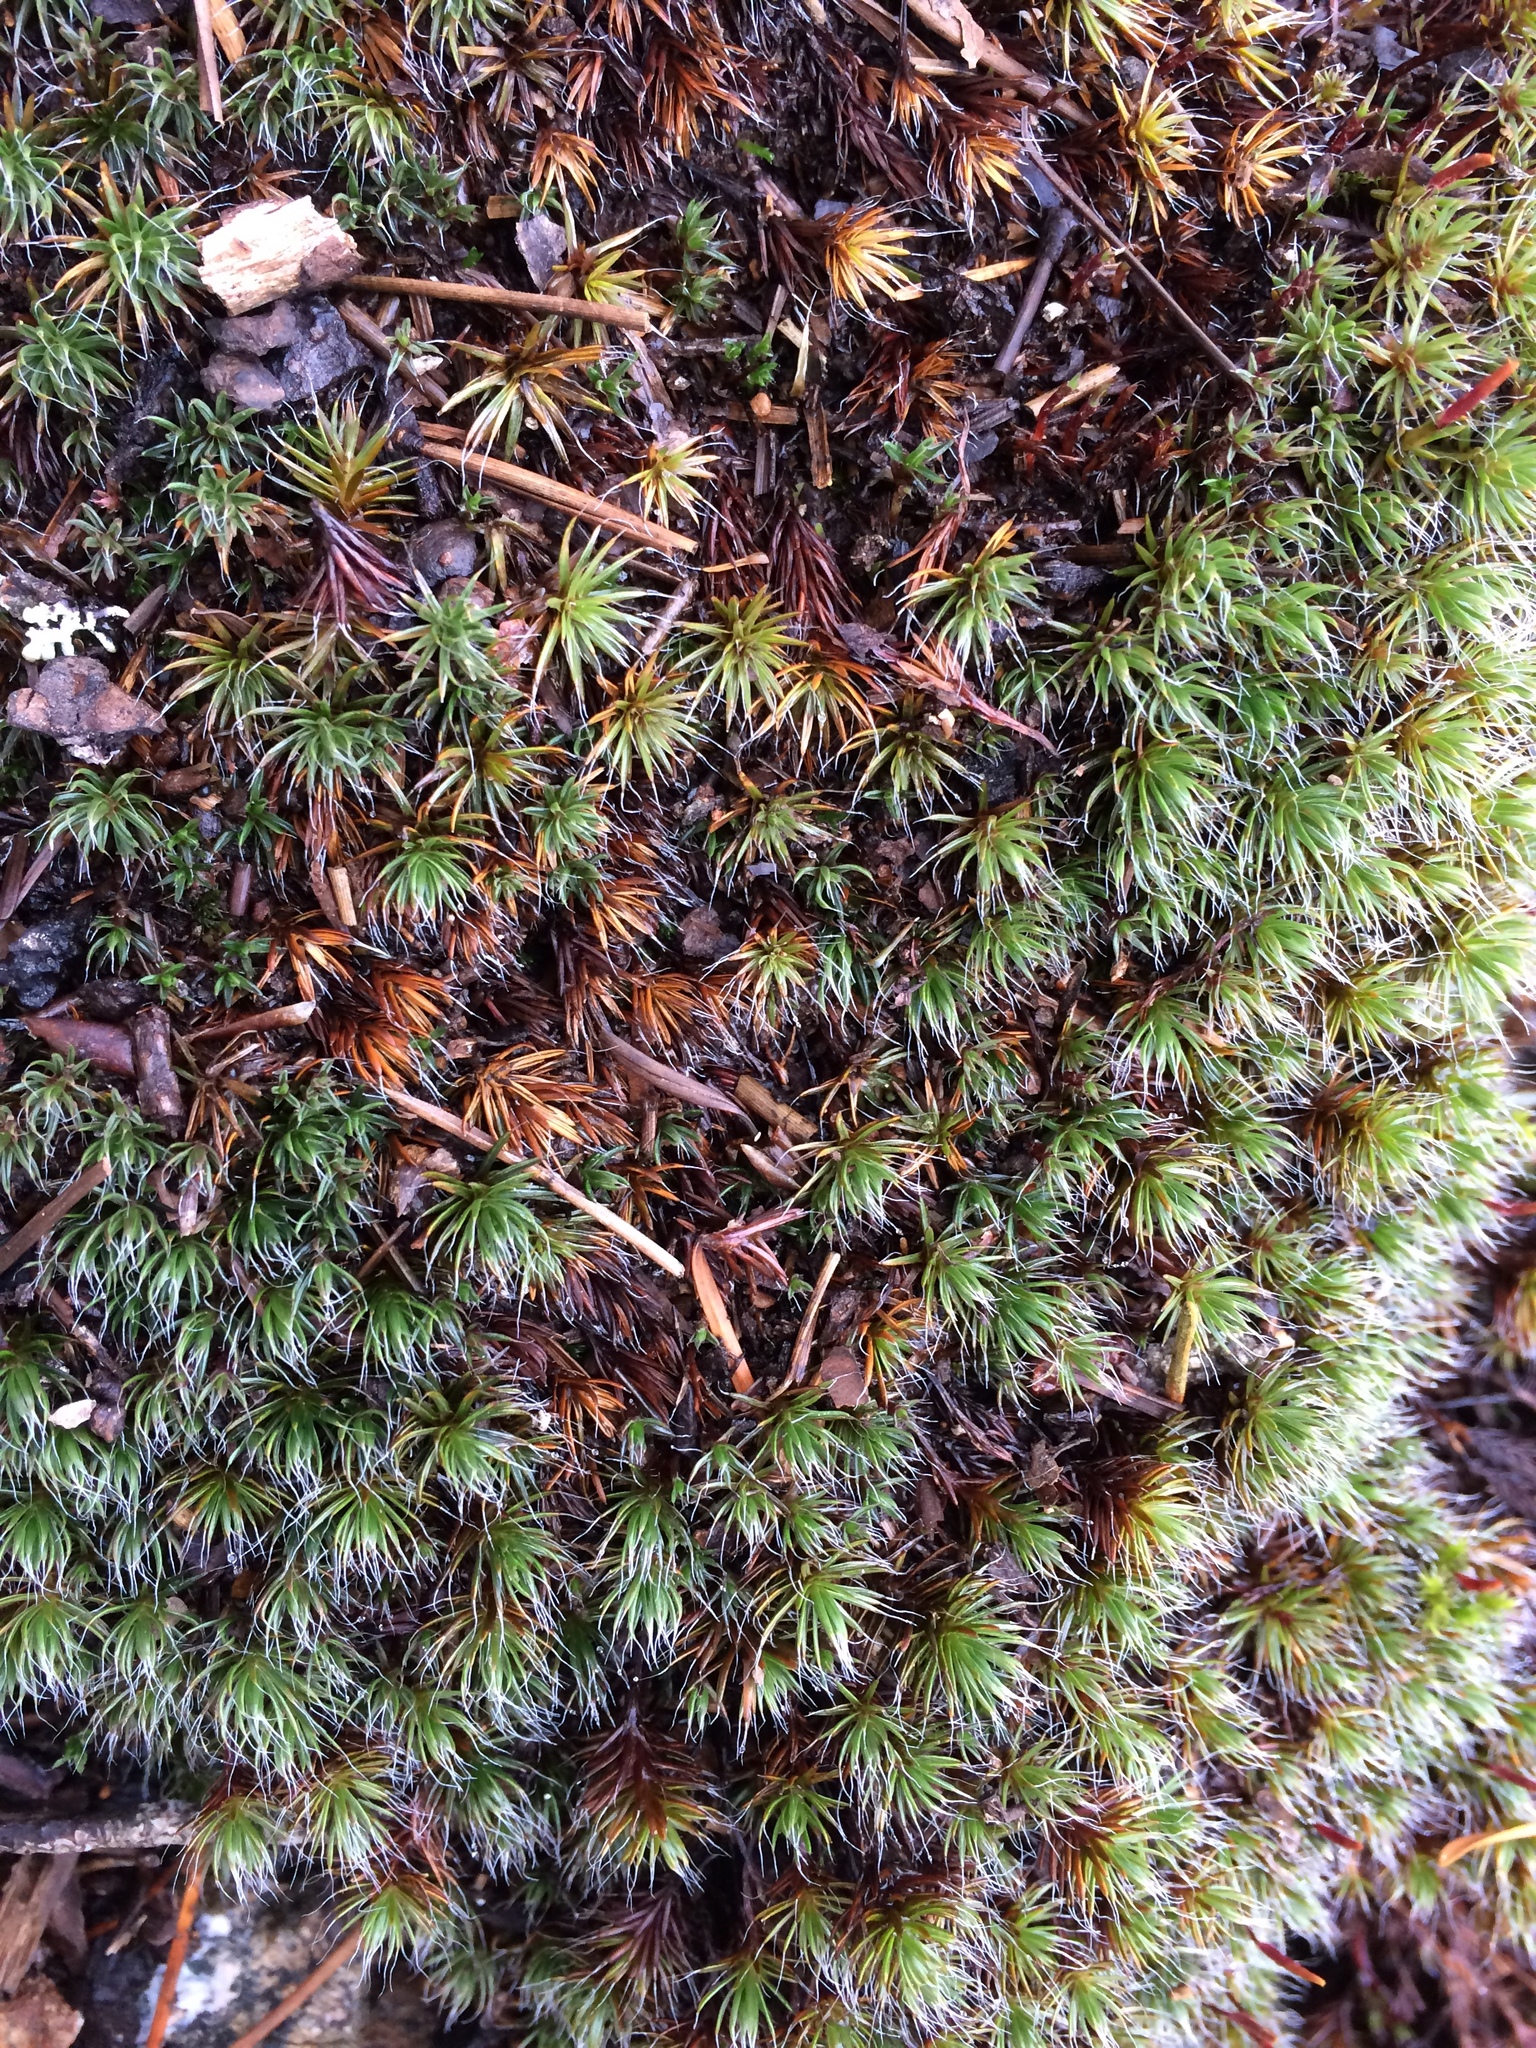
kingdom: Plantae
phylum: Bryophyta
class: Polytrichopsida
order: Polytrichales
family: Polytrichaceae
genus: Polytrichum
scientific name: Polytrichum piliferum
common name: Bristly haircap
